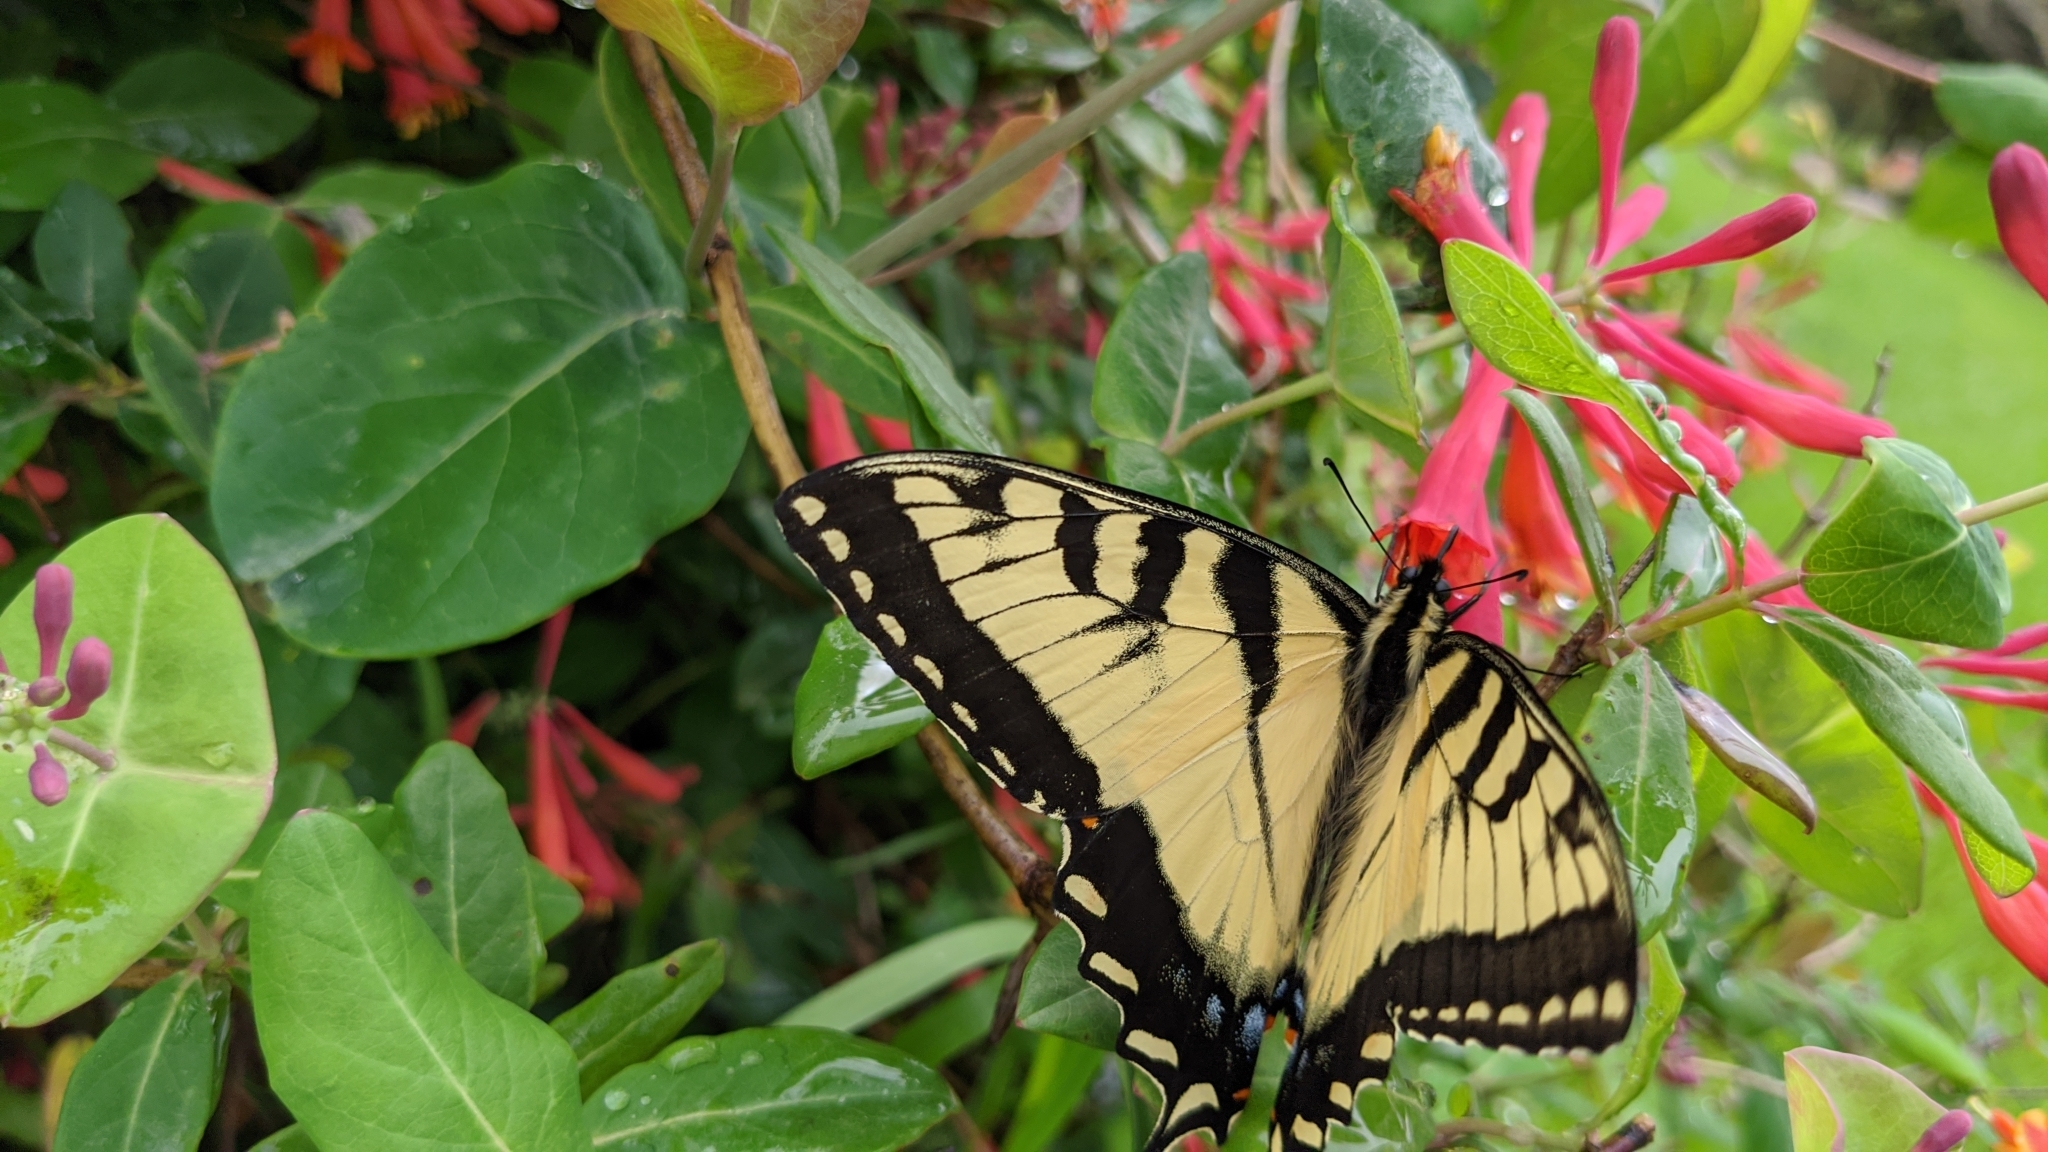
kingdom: Animalia
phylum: Arthropoda
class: Insecta
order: Lepidoptera
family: Papilionidae
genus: Papilio
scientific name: Papilio glaucus
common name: Tiger swallowtail
